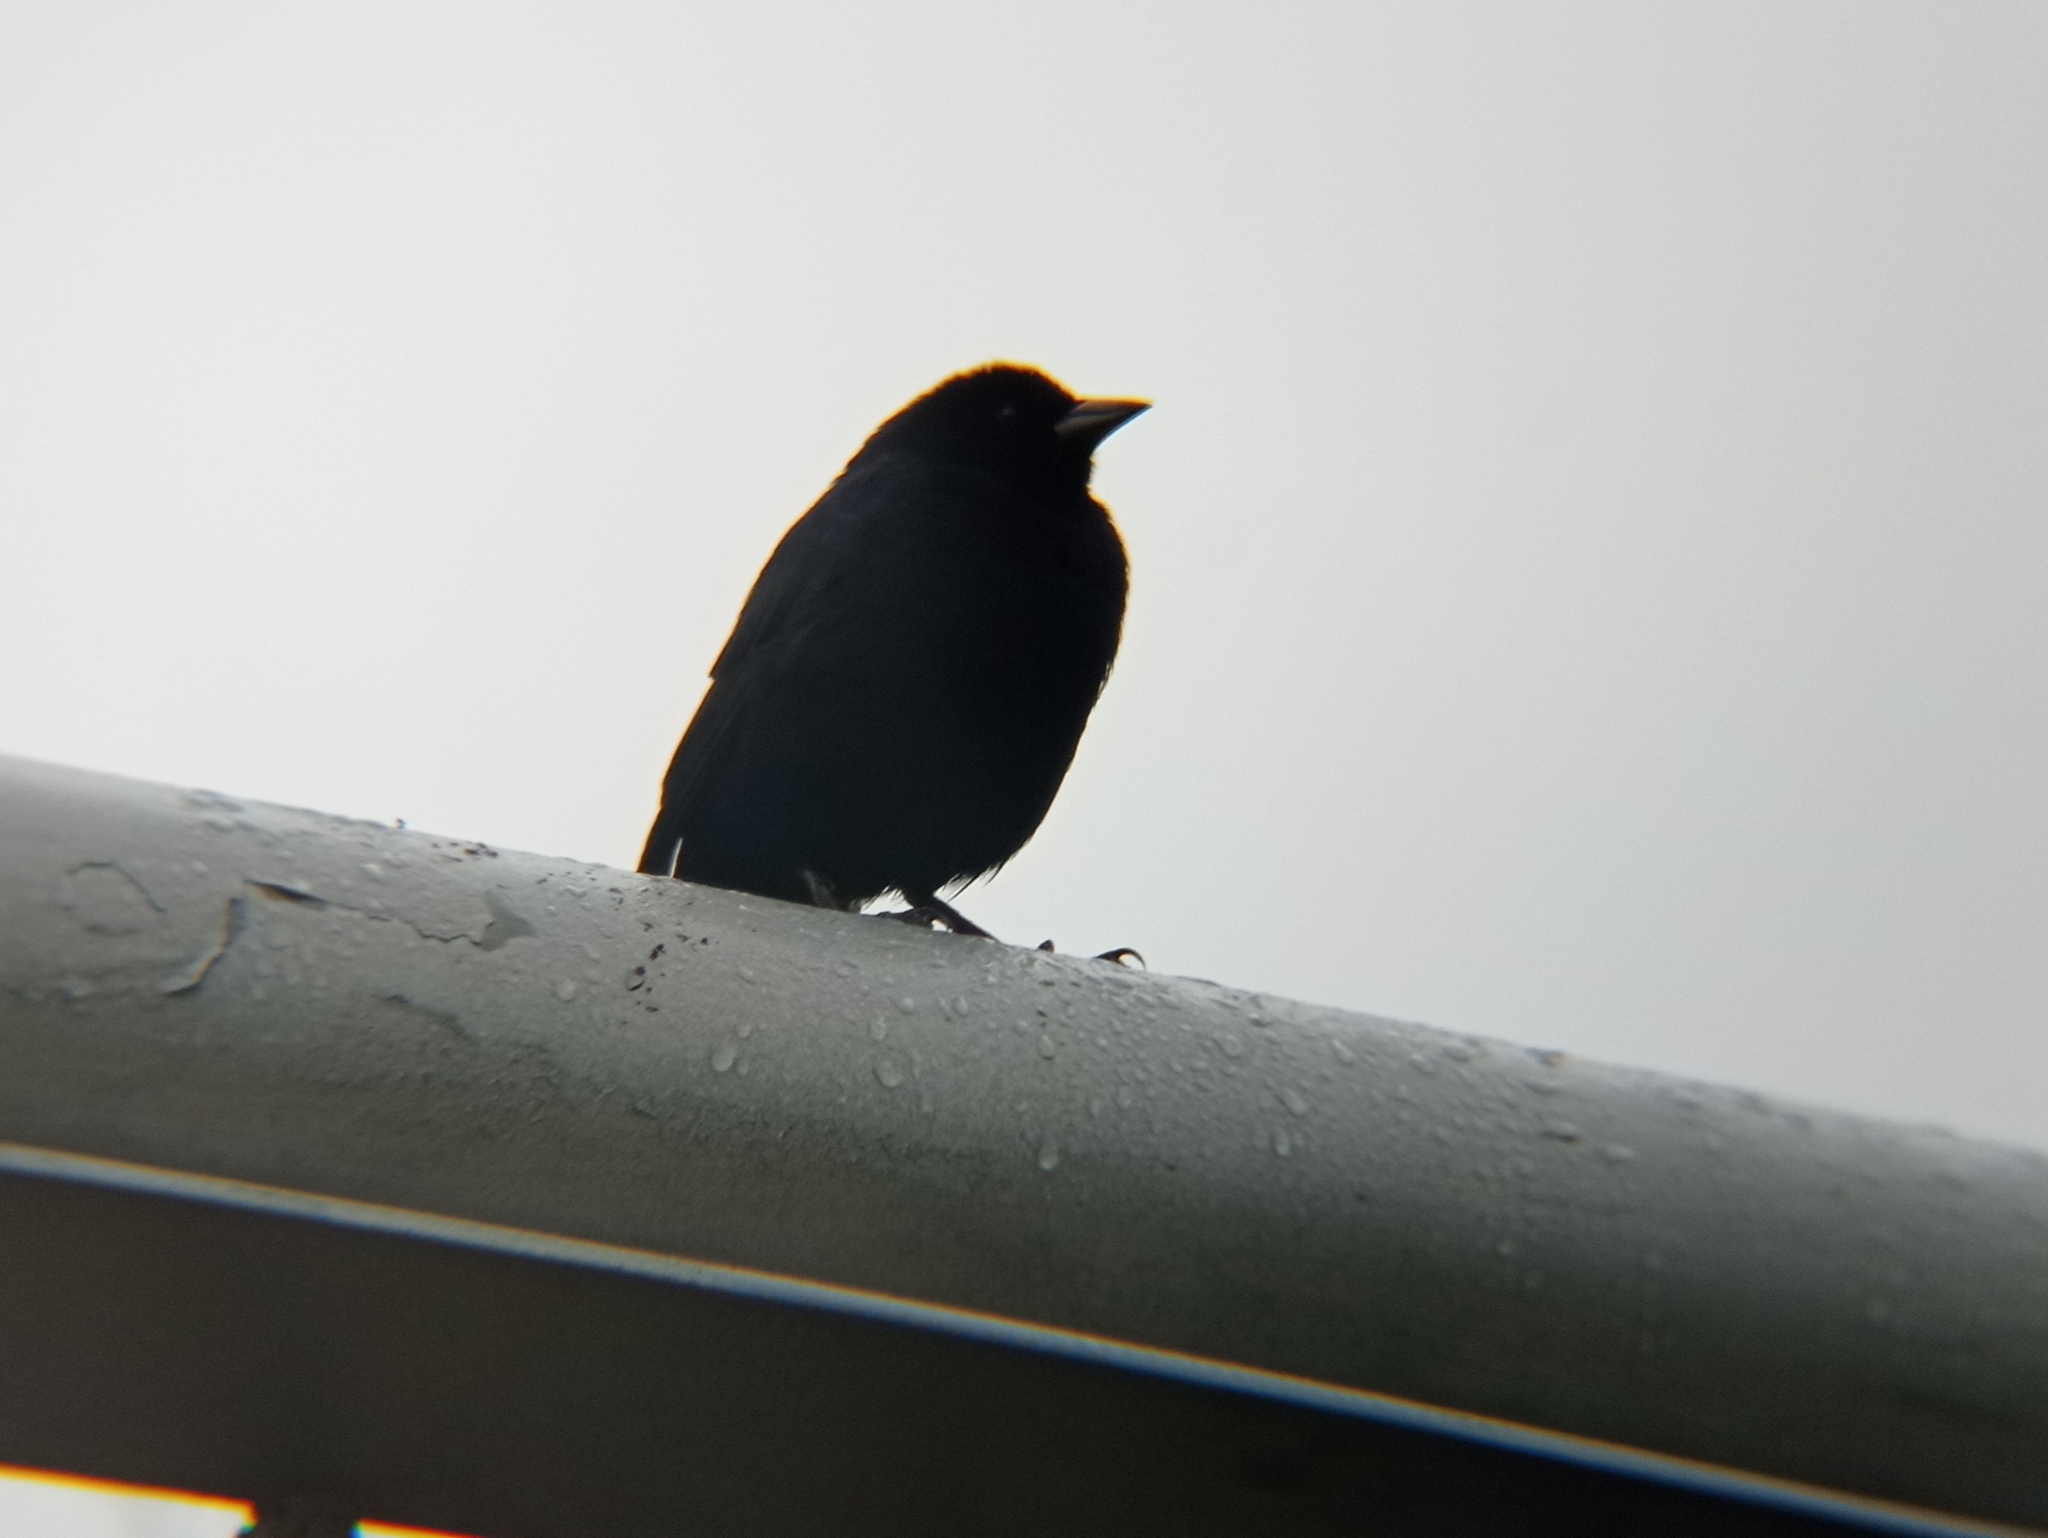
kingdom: Animalia
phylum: Chordata
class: Aves
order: Passeriformes
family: Icteridae
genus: Molothrus
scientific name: Molothrus bonariensis
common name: Shiny cowbird
